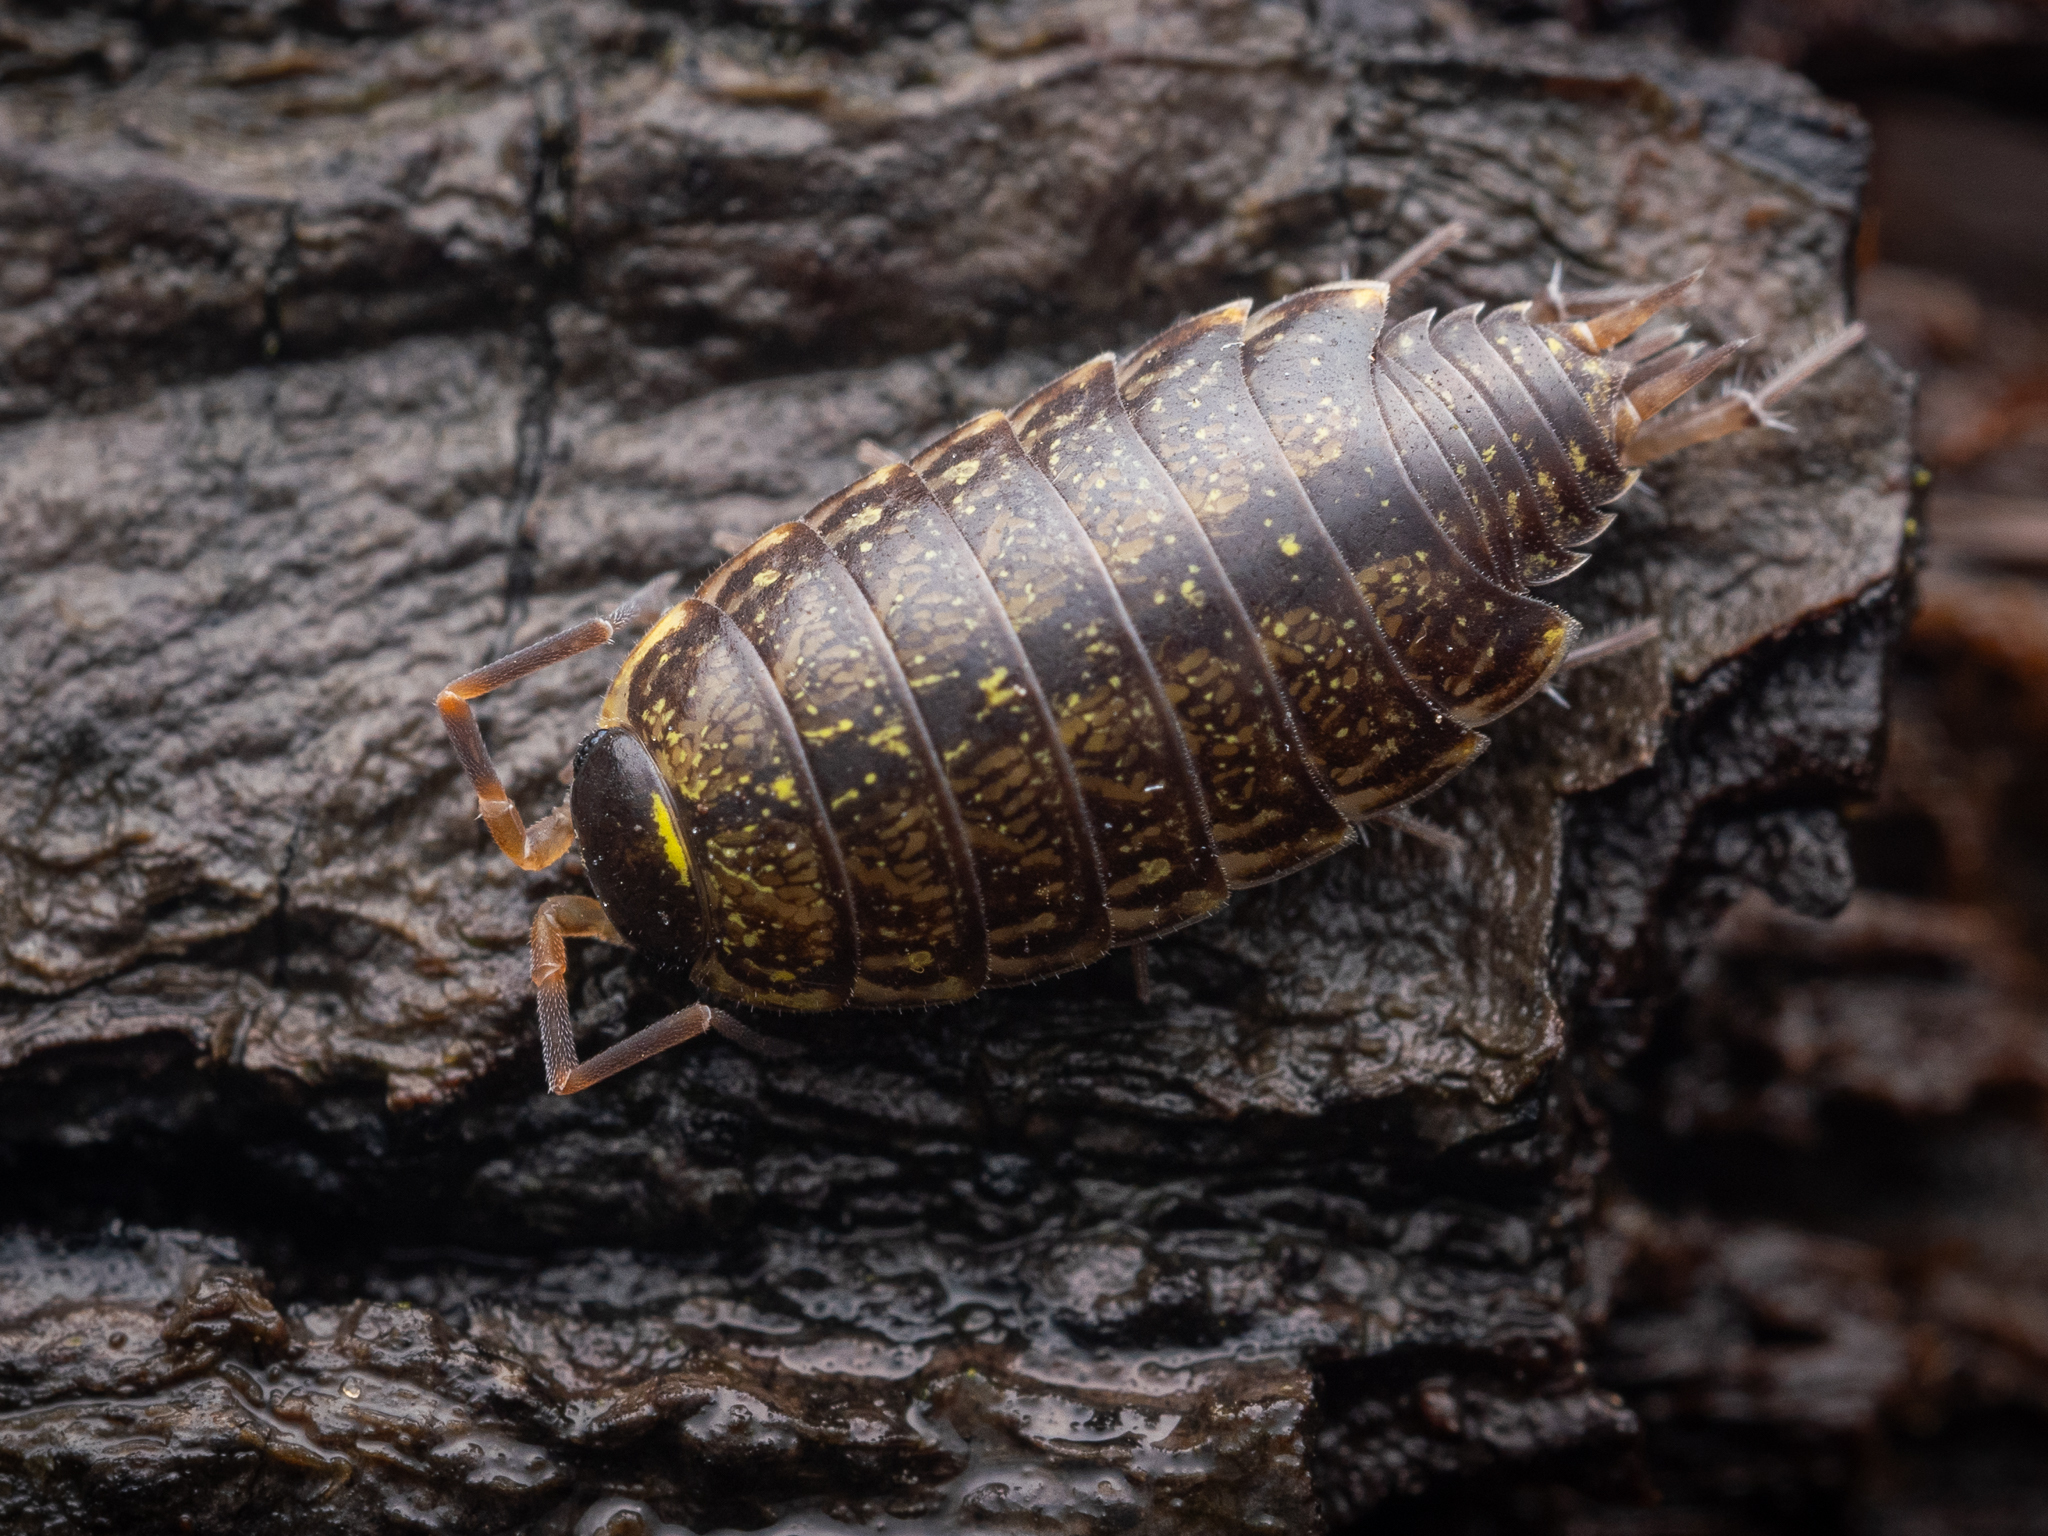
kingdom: Animalia
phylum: Arthropoda
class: Malacostraca
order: Isopoda
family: Philosciidae
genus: Philoscia
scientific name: Philoscia muscorum
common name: Common striped woodlouse
